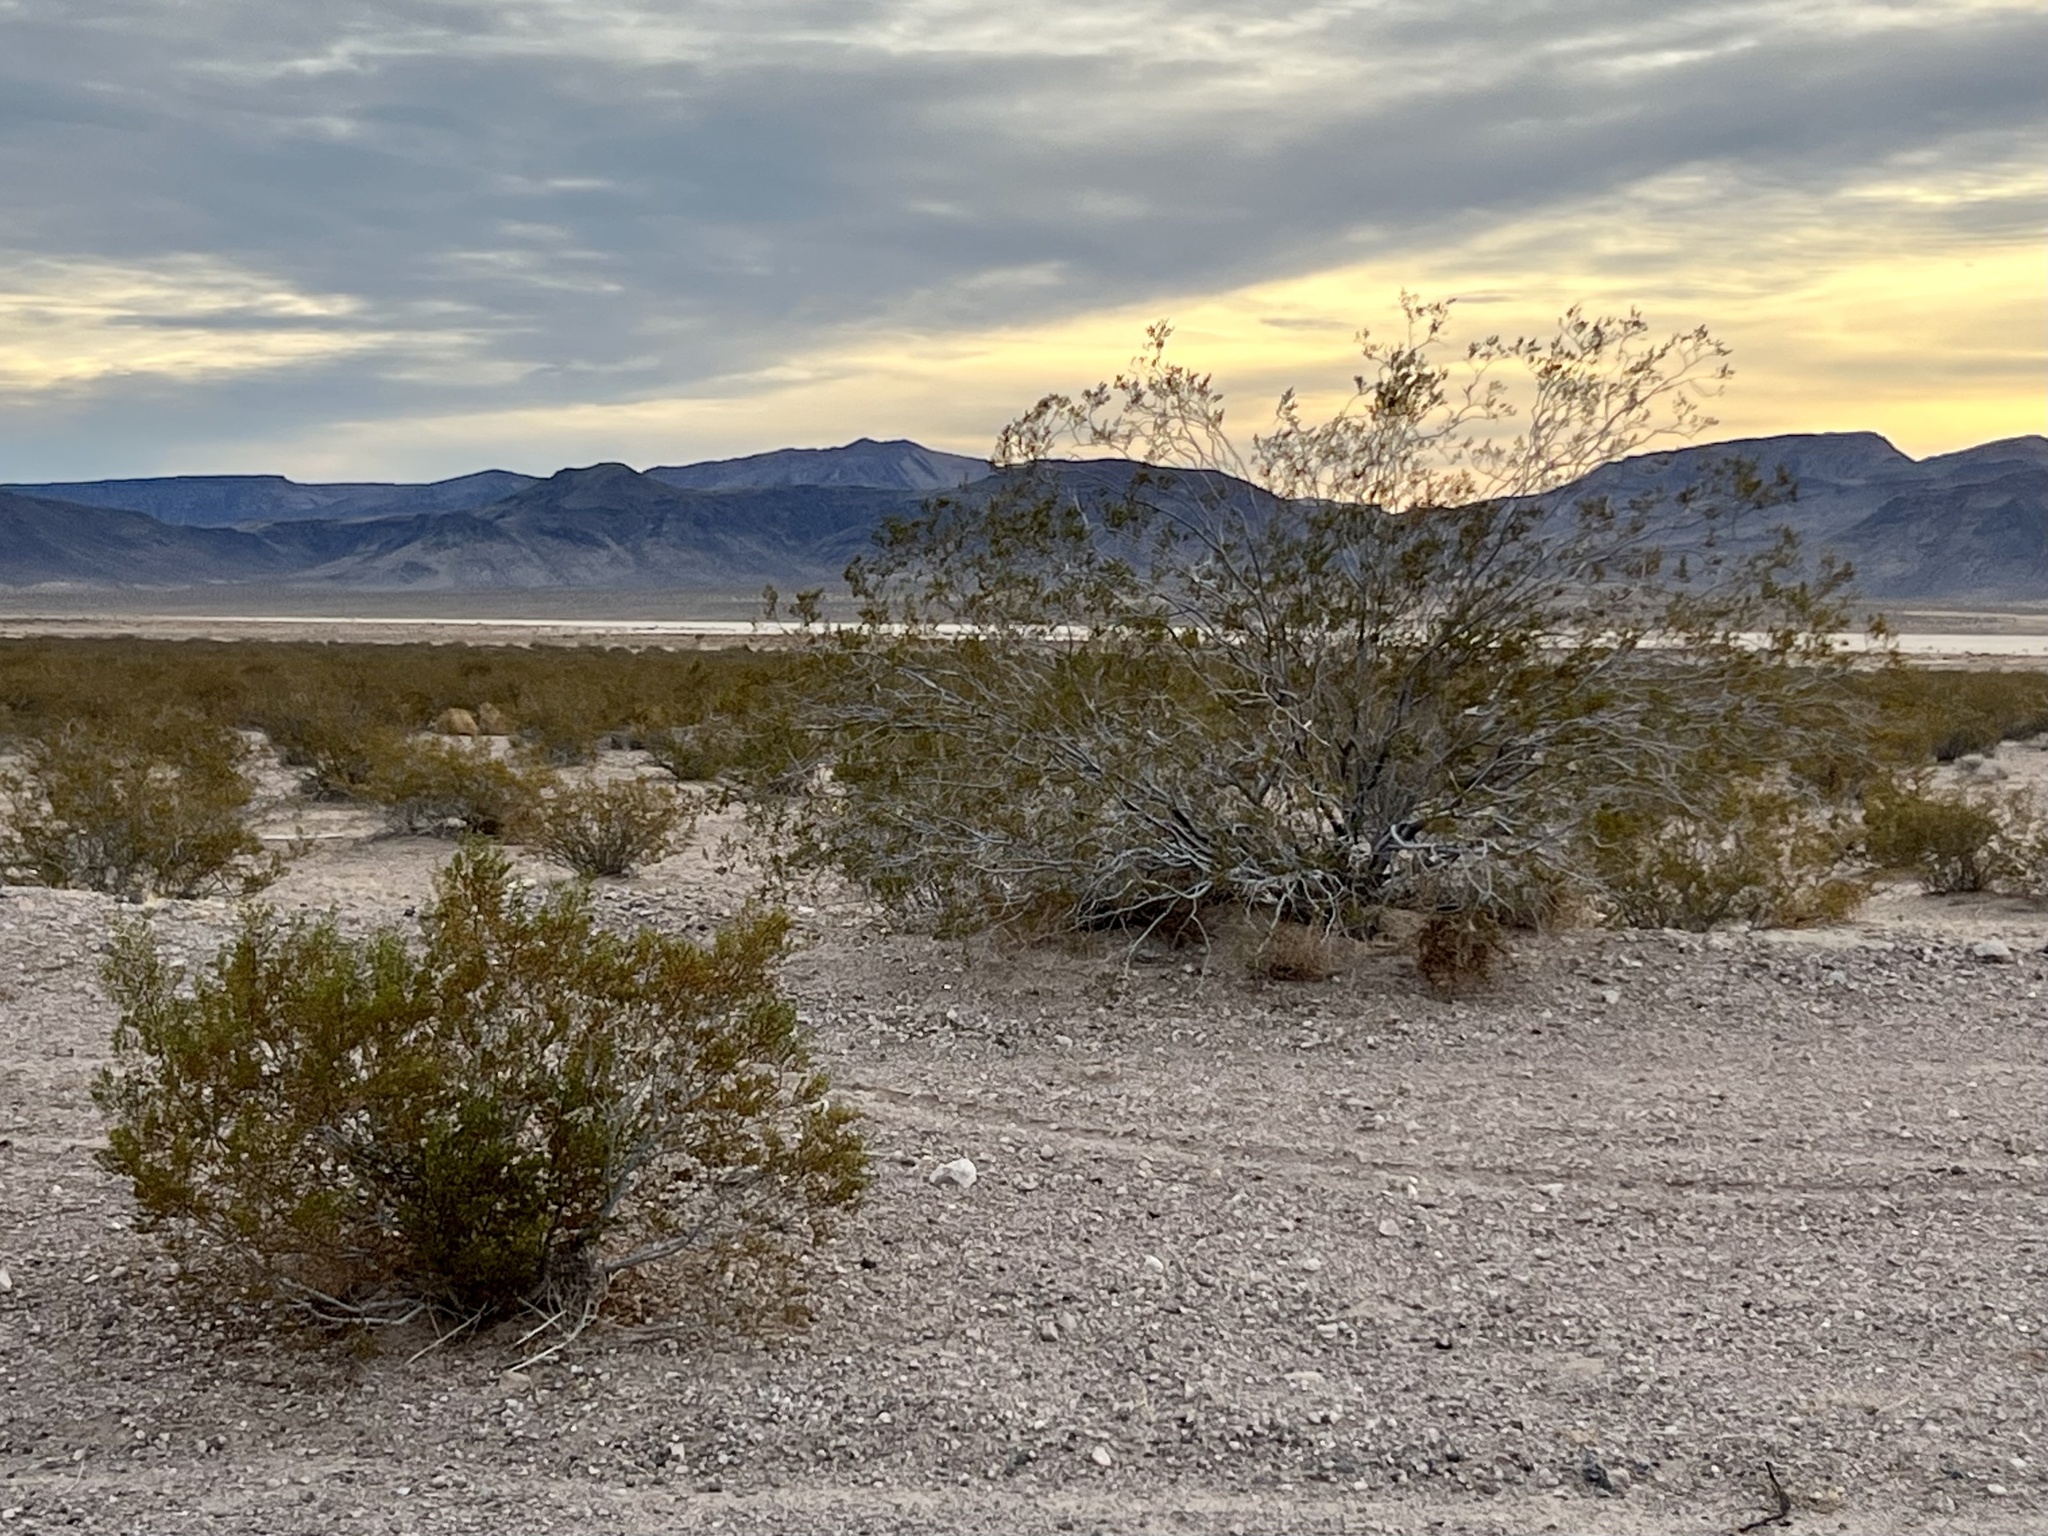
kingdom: Plantae
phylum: Tracheophyta
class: Magnoliopsida
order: Zygophyllales
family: Zygophyllaceae
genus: Larrea
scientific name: Larrea tridentata
